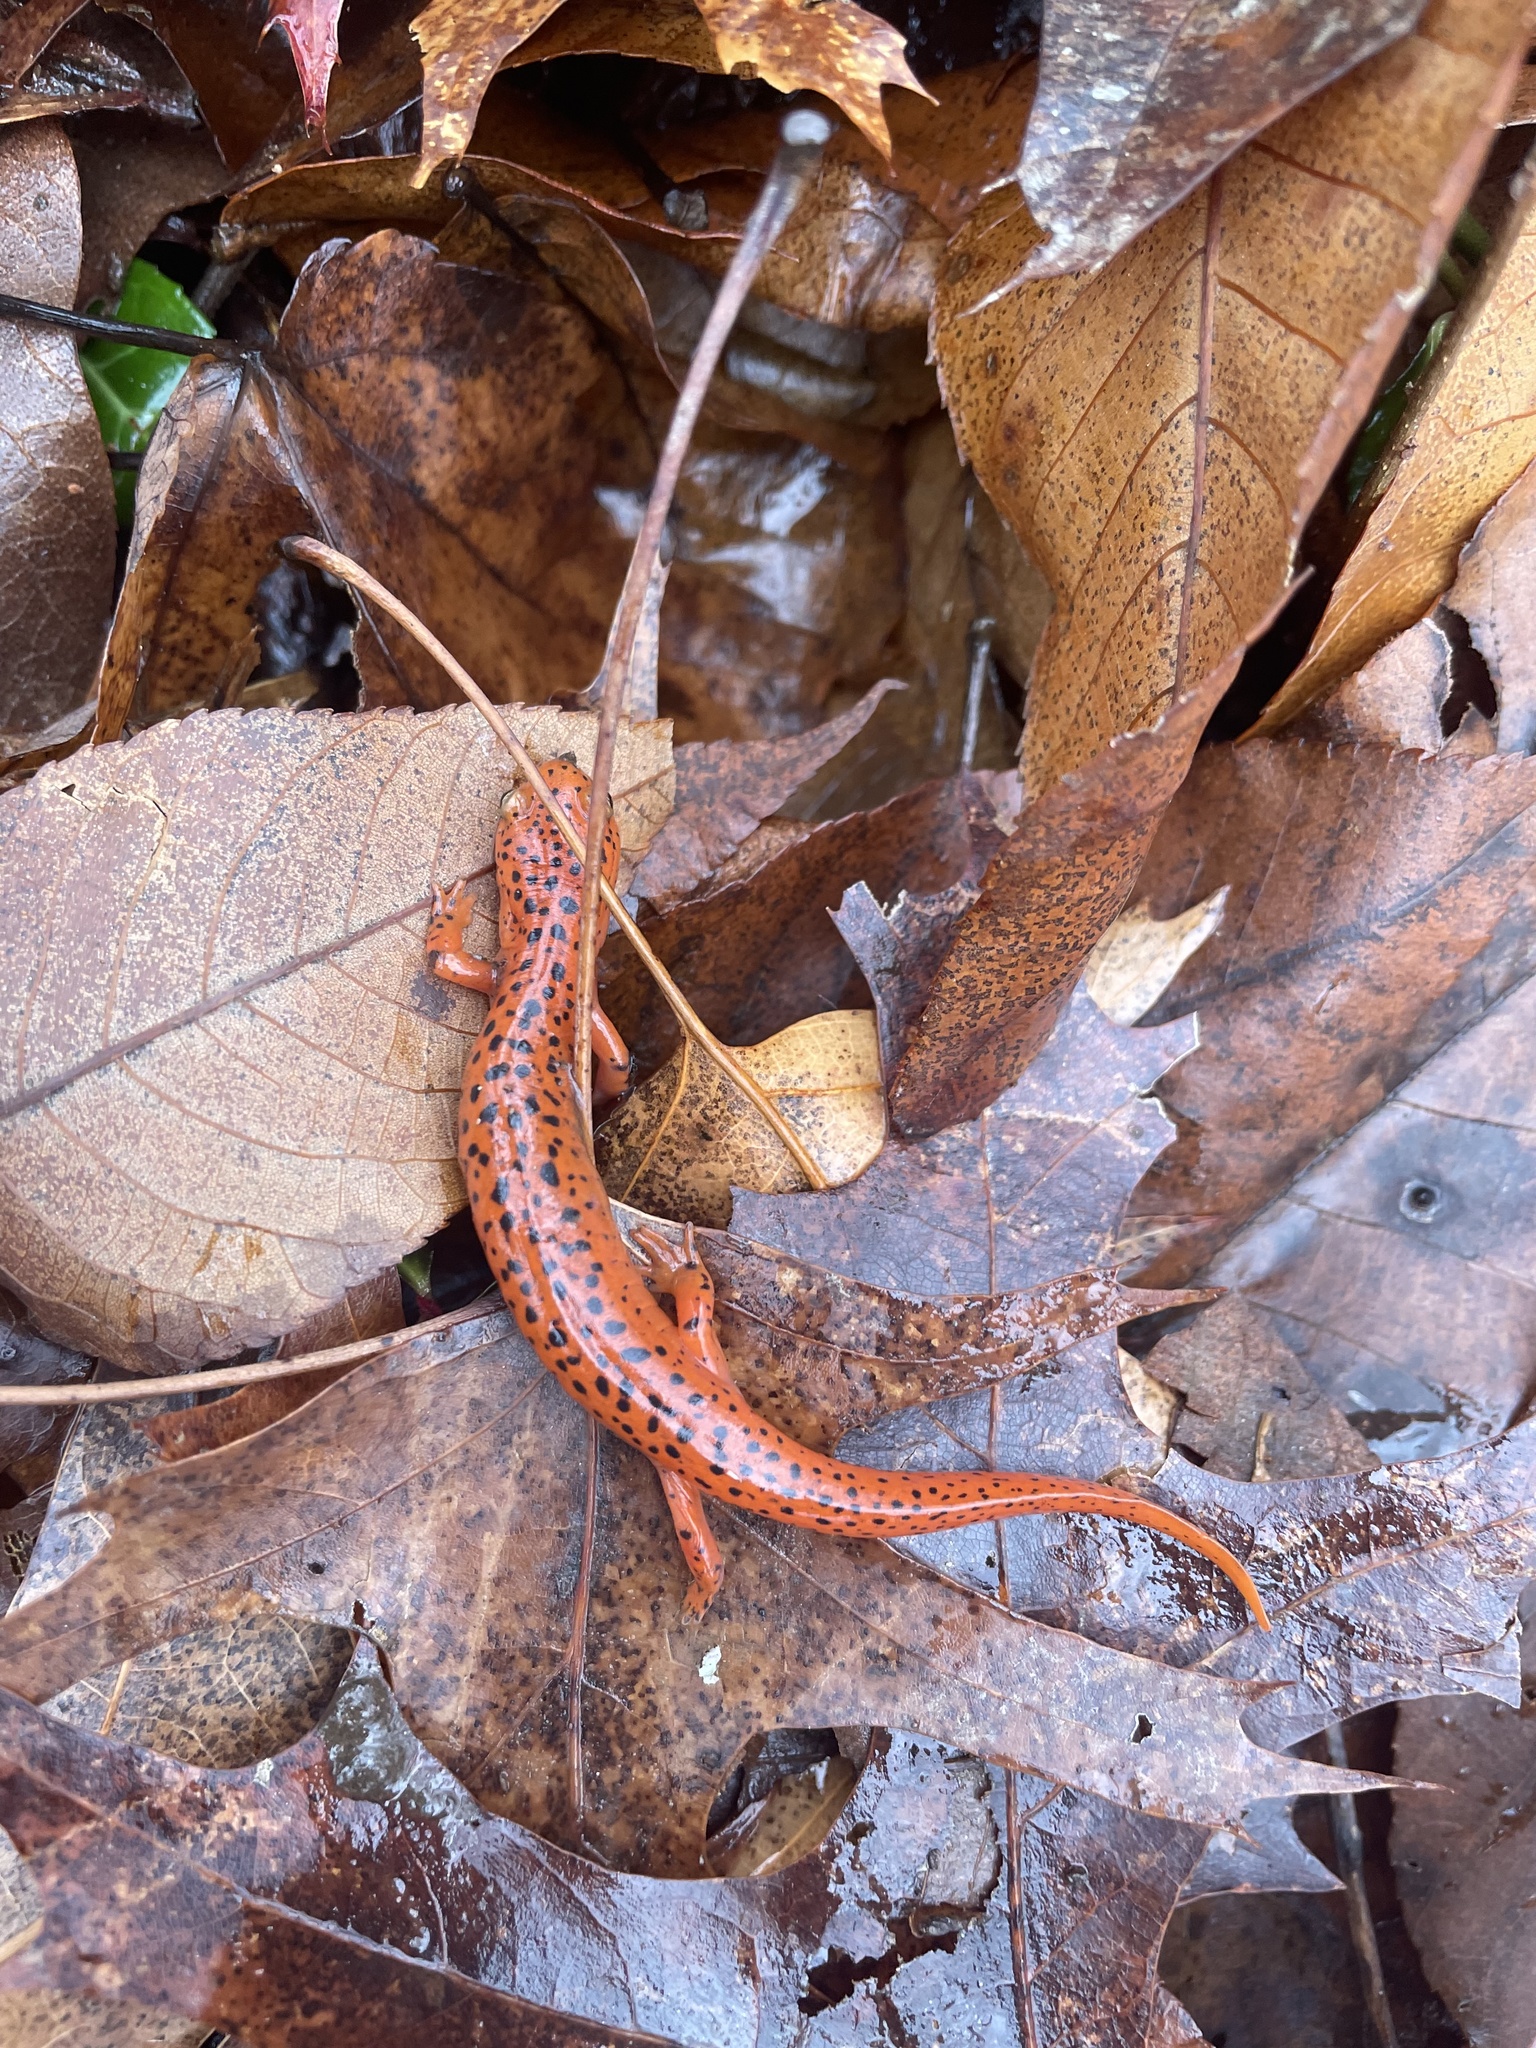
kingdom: Animalia
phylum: Chordata
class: Amphibia
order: Caudata
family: Plethodontidae
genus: Pseudotriton
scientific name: Pseudotriton ruber
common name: Red salamander
